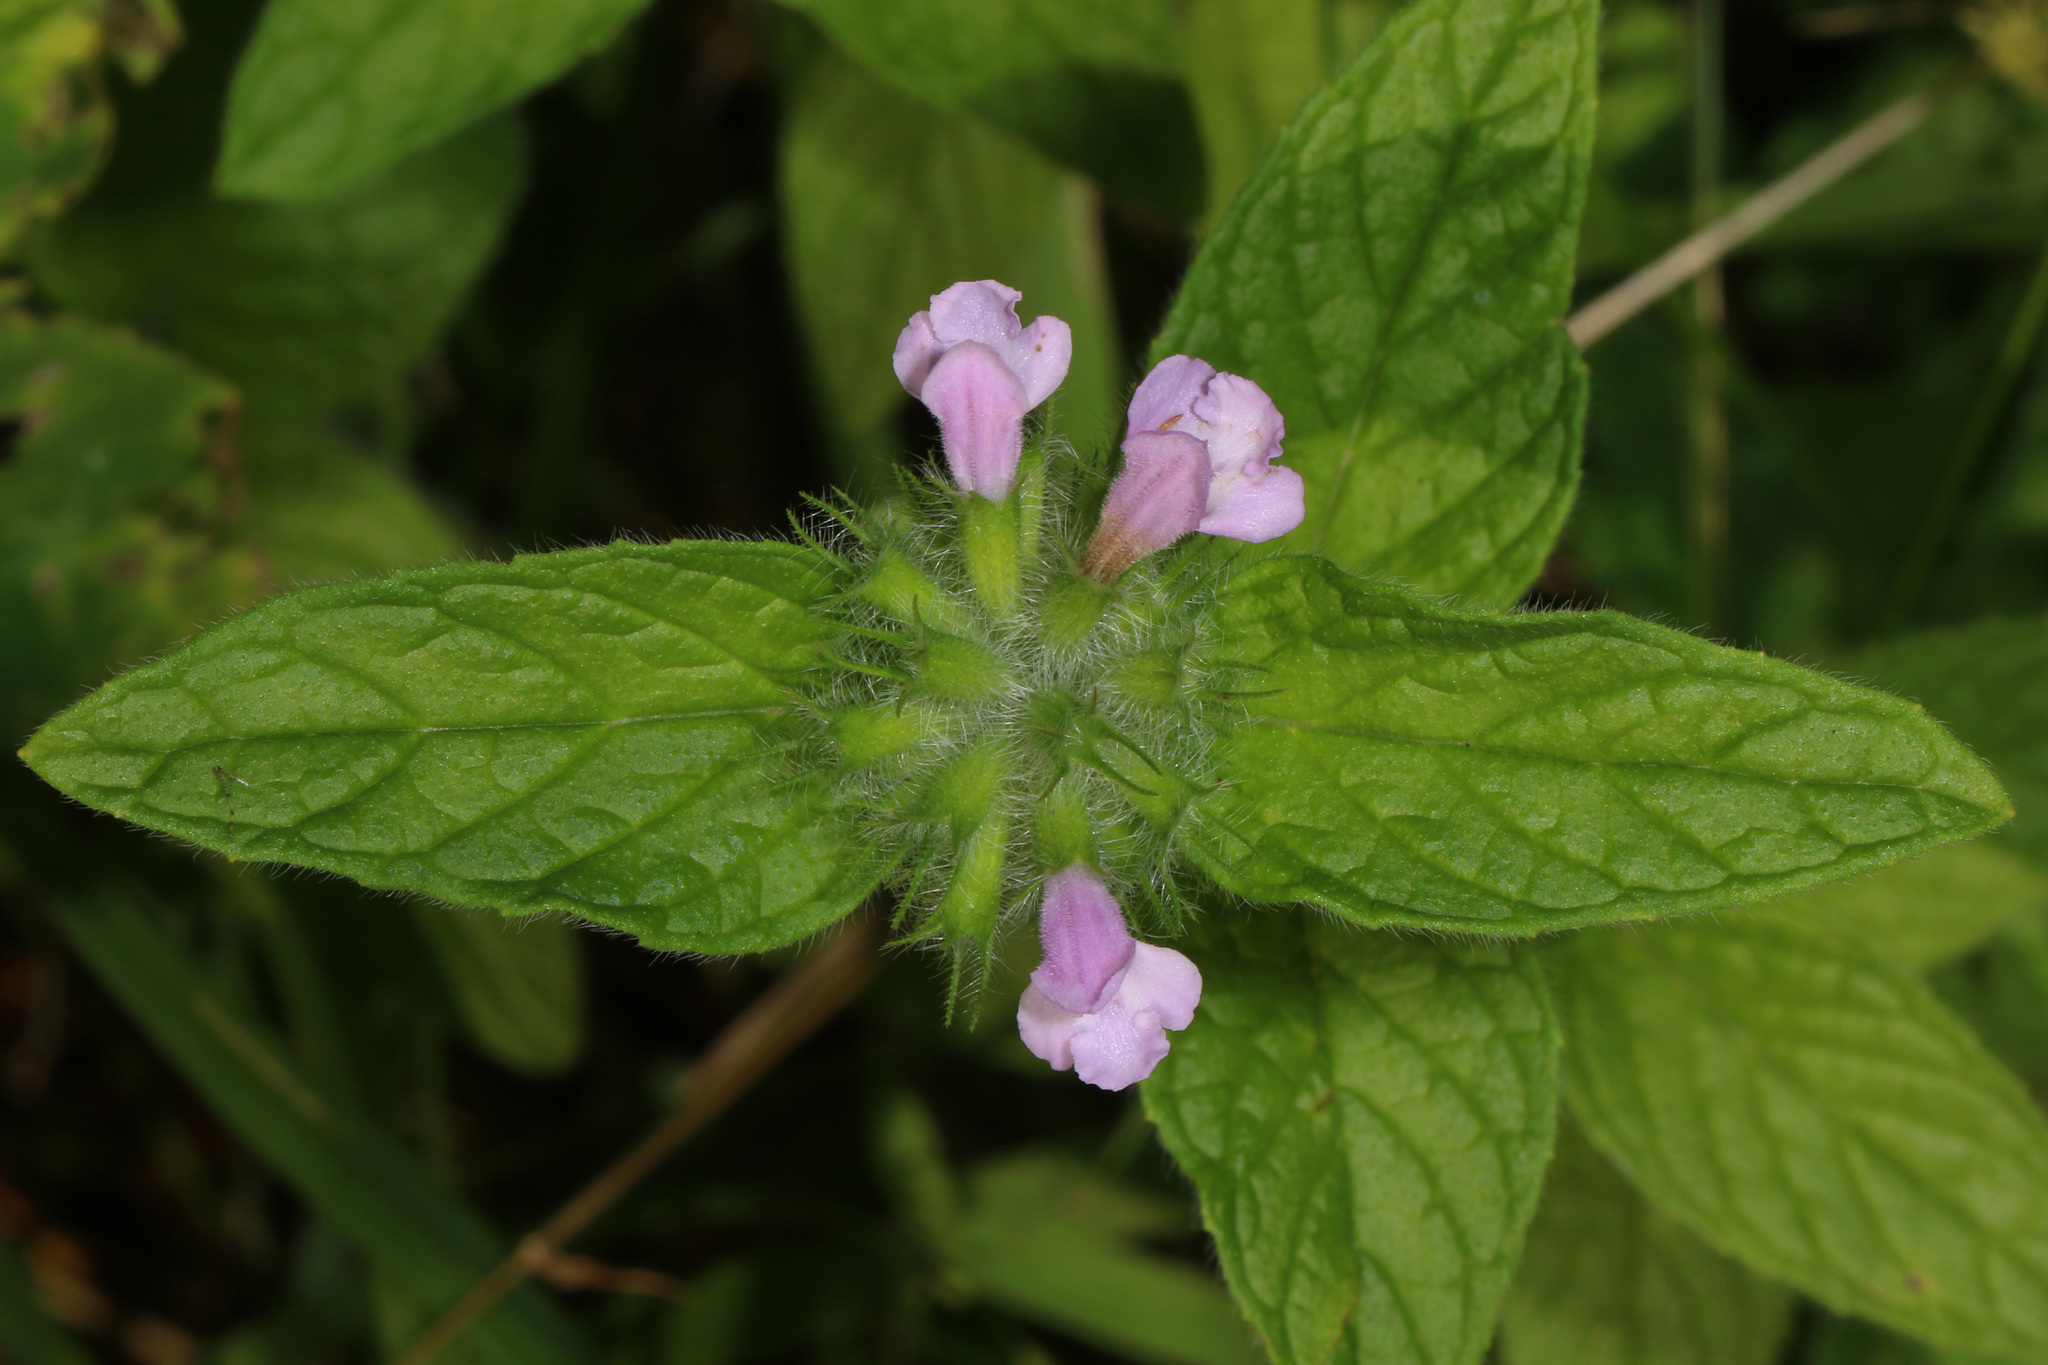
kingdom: Plantae
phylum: Tracheophyta
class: Magnoliopsida
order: Lamiales
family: Lamiaceae
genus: Clinopodium
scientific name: Clinopodium vulgare
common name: Wild basil
